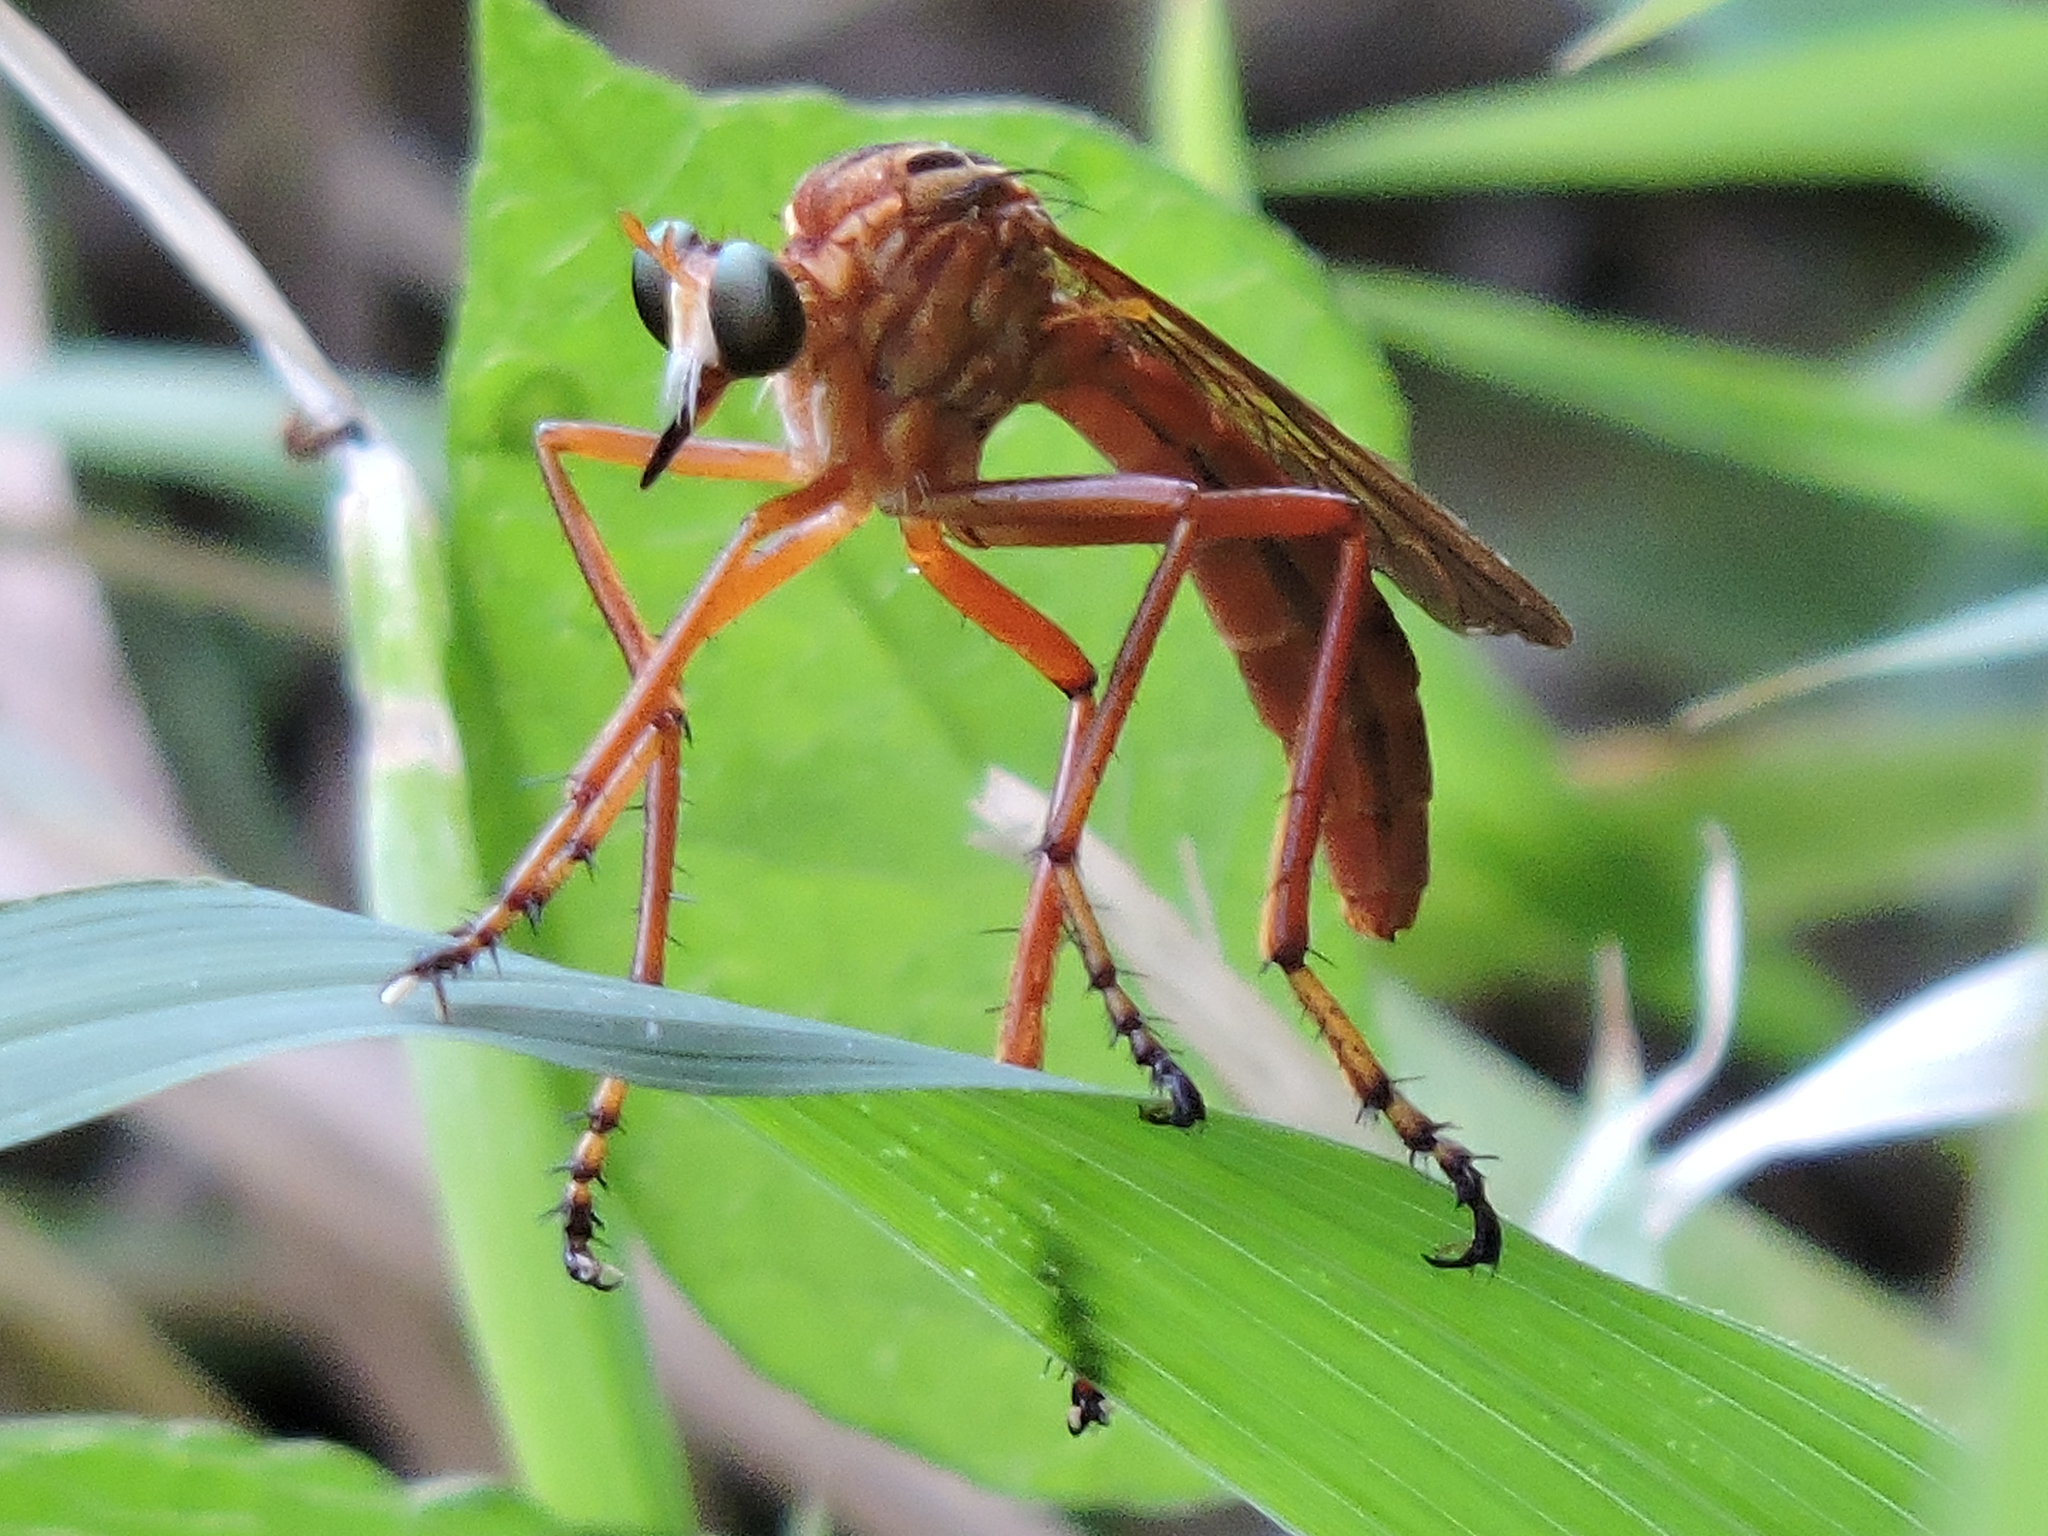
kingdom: Animalia
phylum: Arthropoda
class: Insecta
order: Diptera
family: Asilidae
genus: Diogmites
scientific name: Diogmites neoternatus
